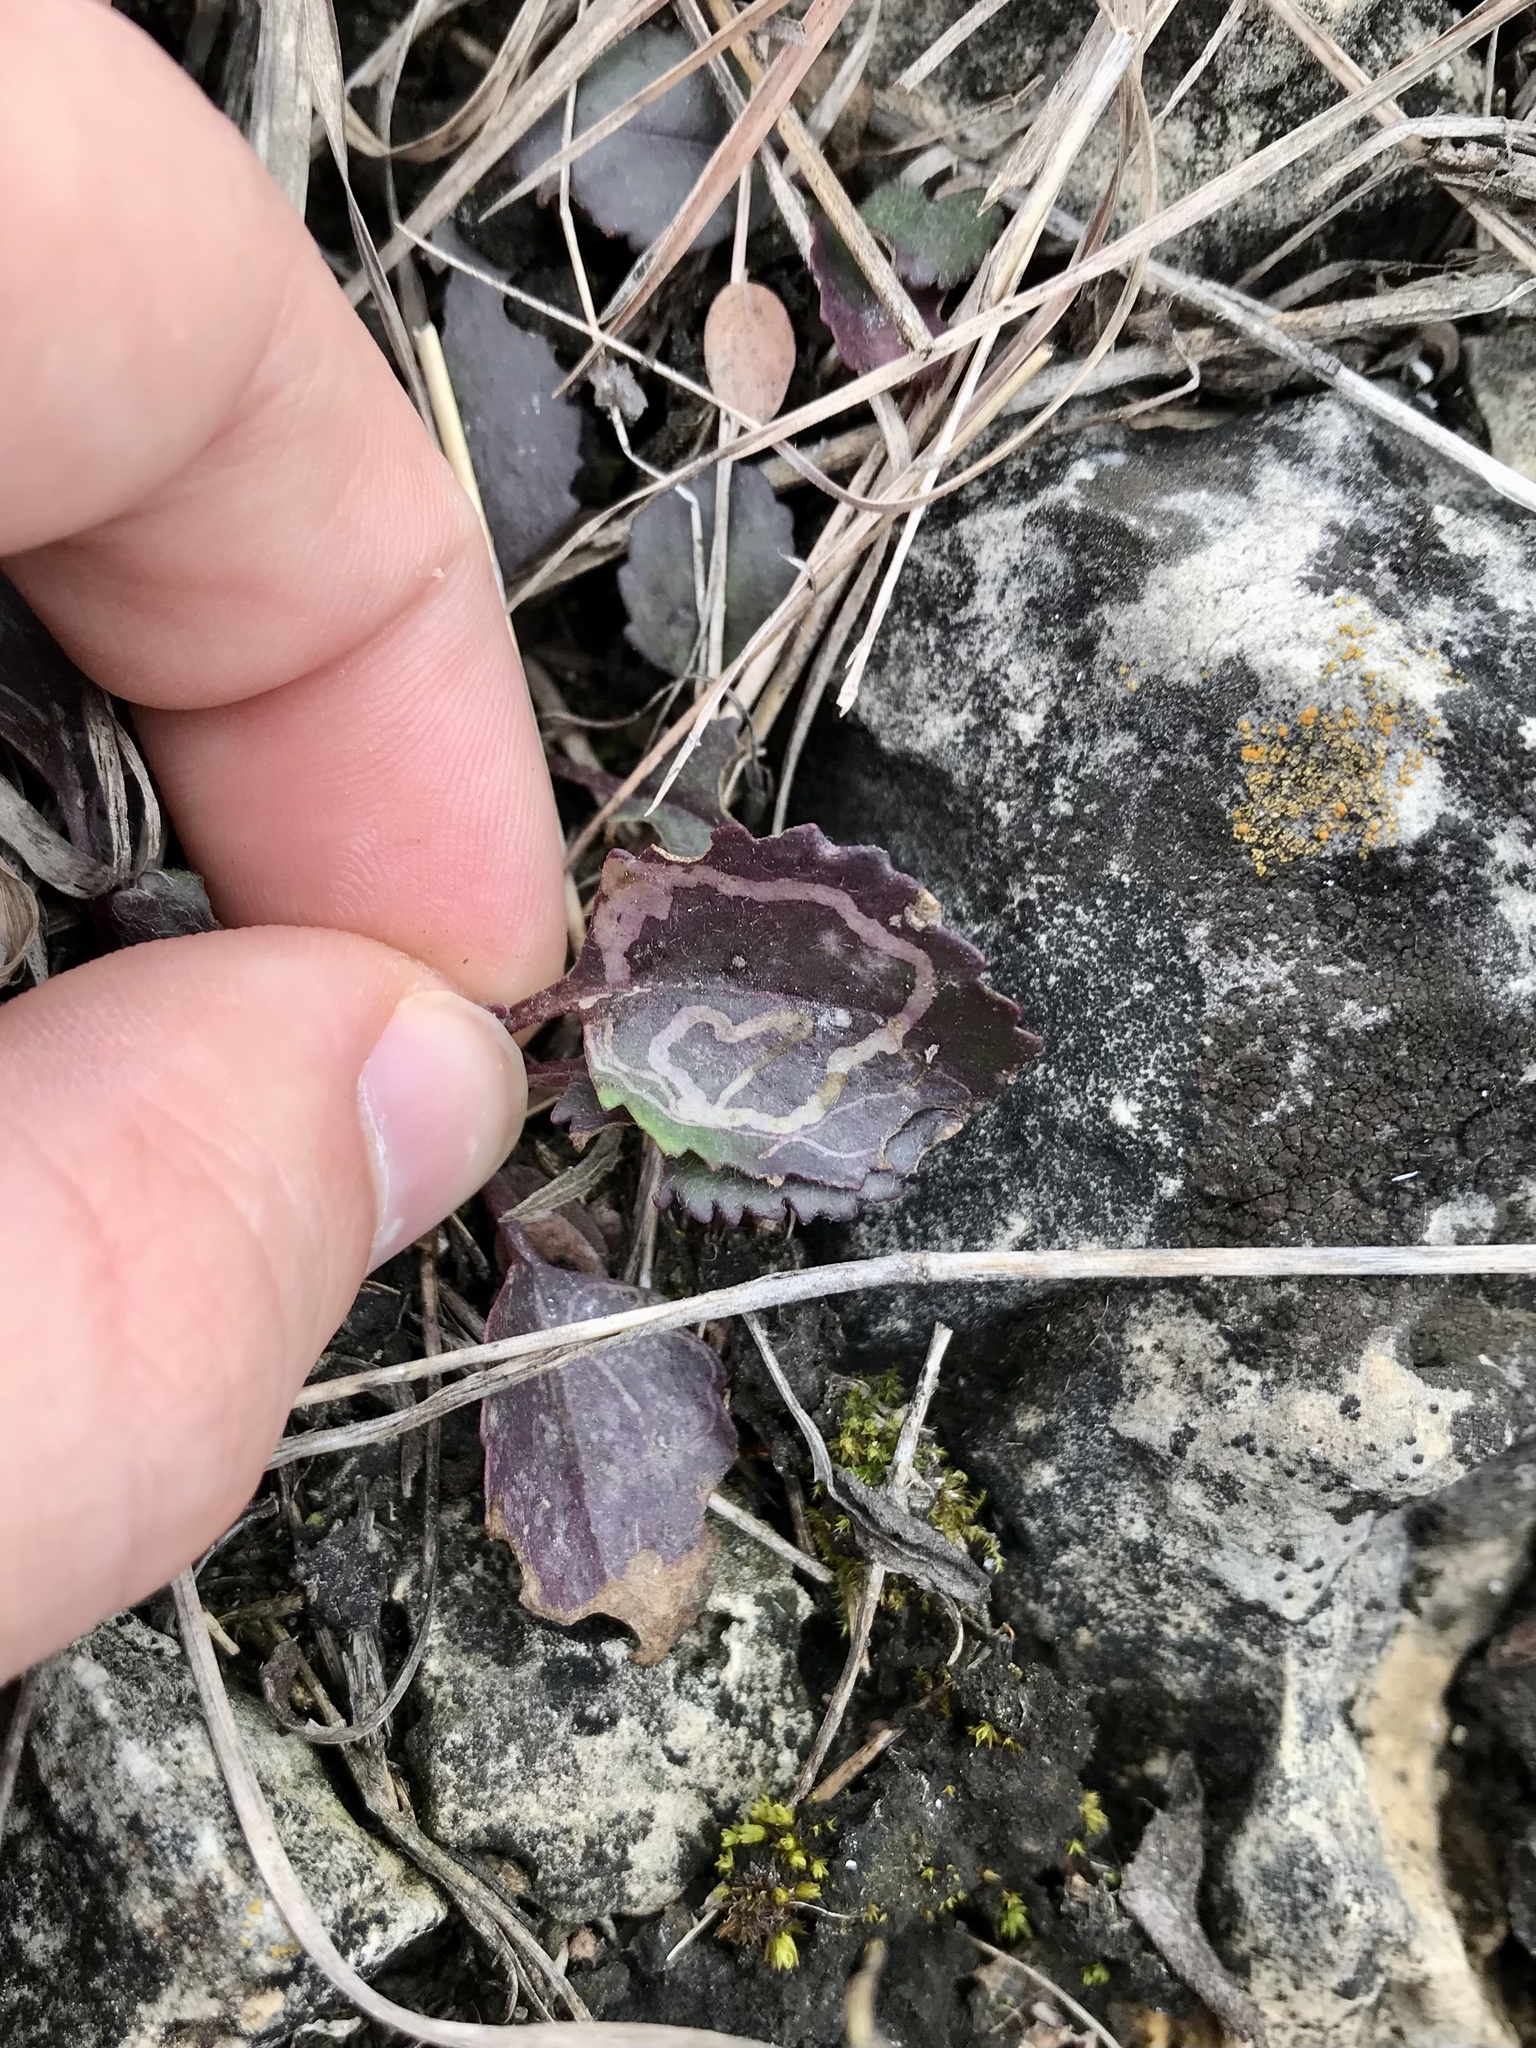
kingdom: Animalia
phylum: Arthropoda
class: Insecta
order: Lepidoptera
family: Gracillariidae
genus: Phyllocnistis
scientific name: Phyllocnistis insignis
